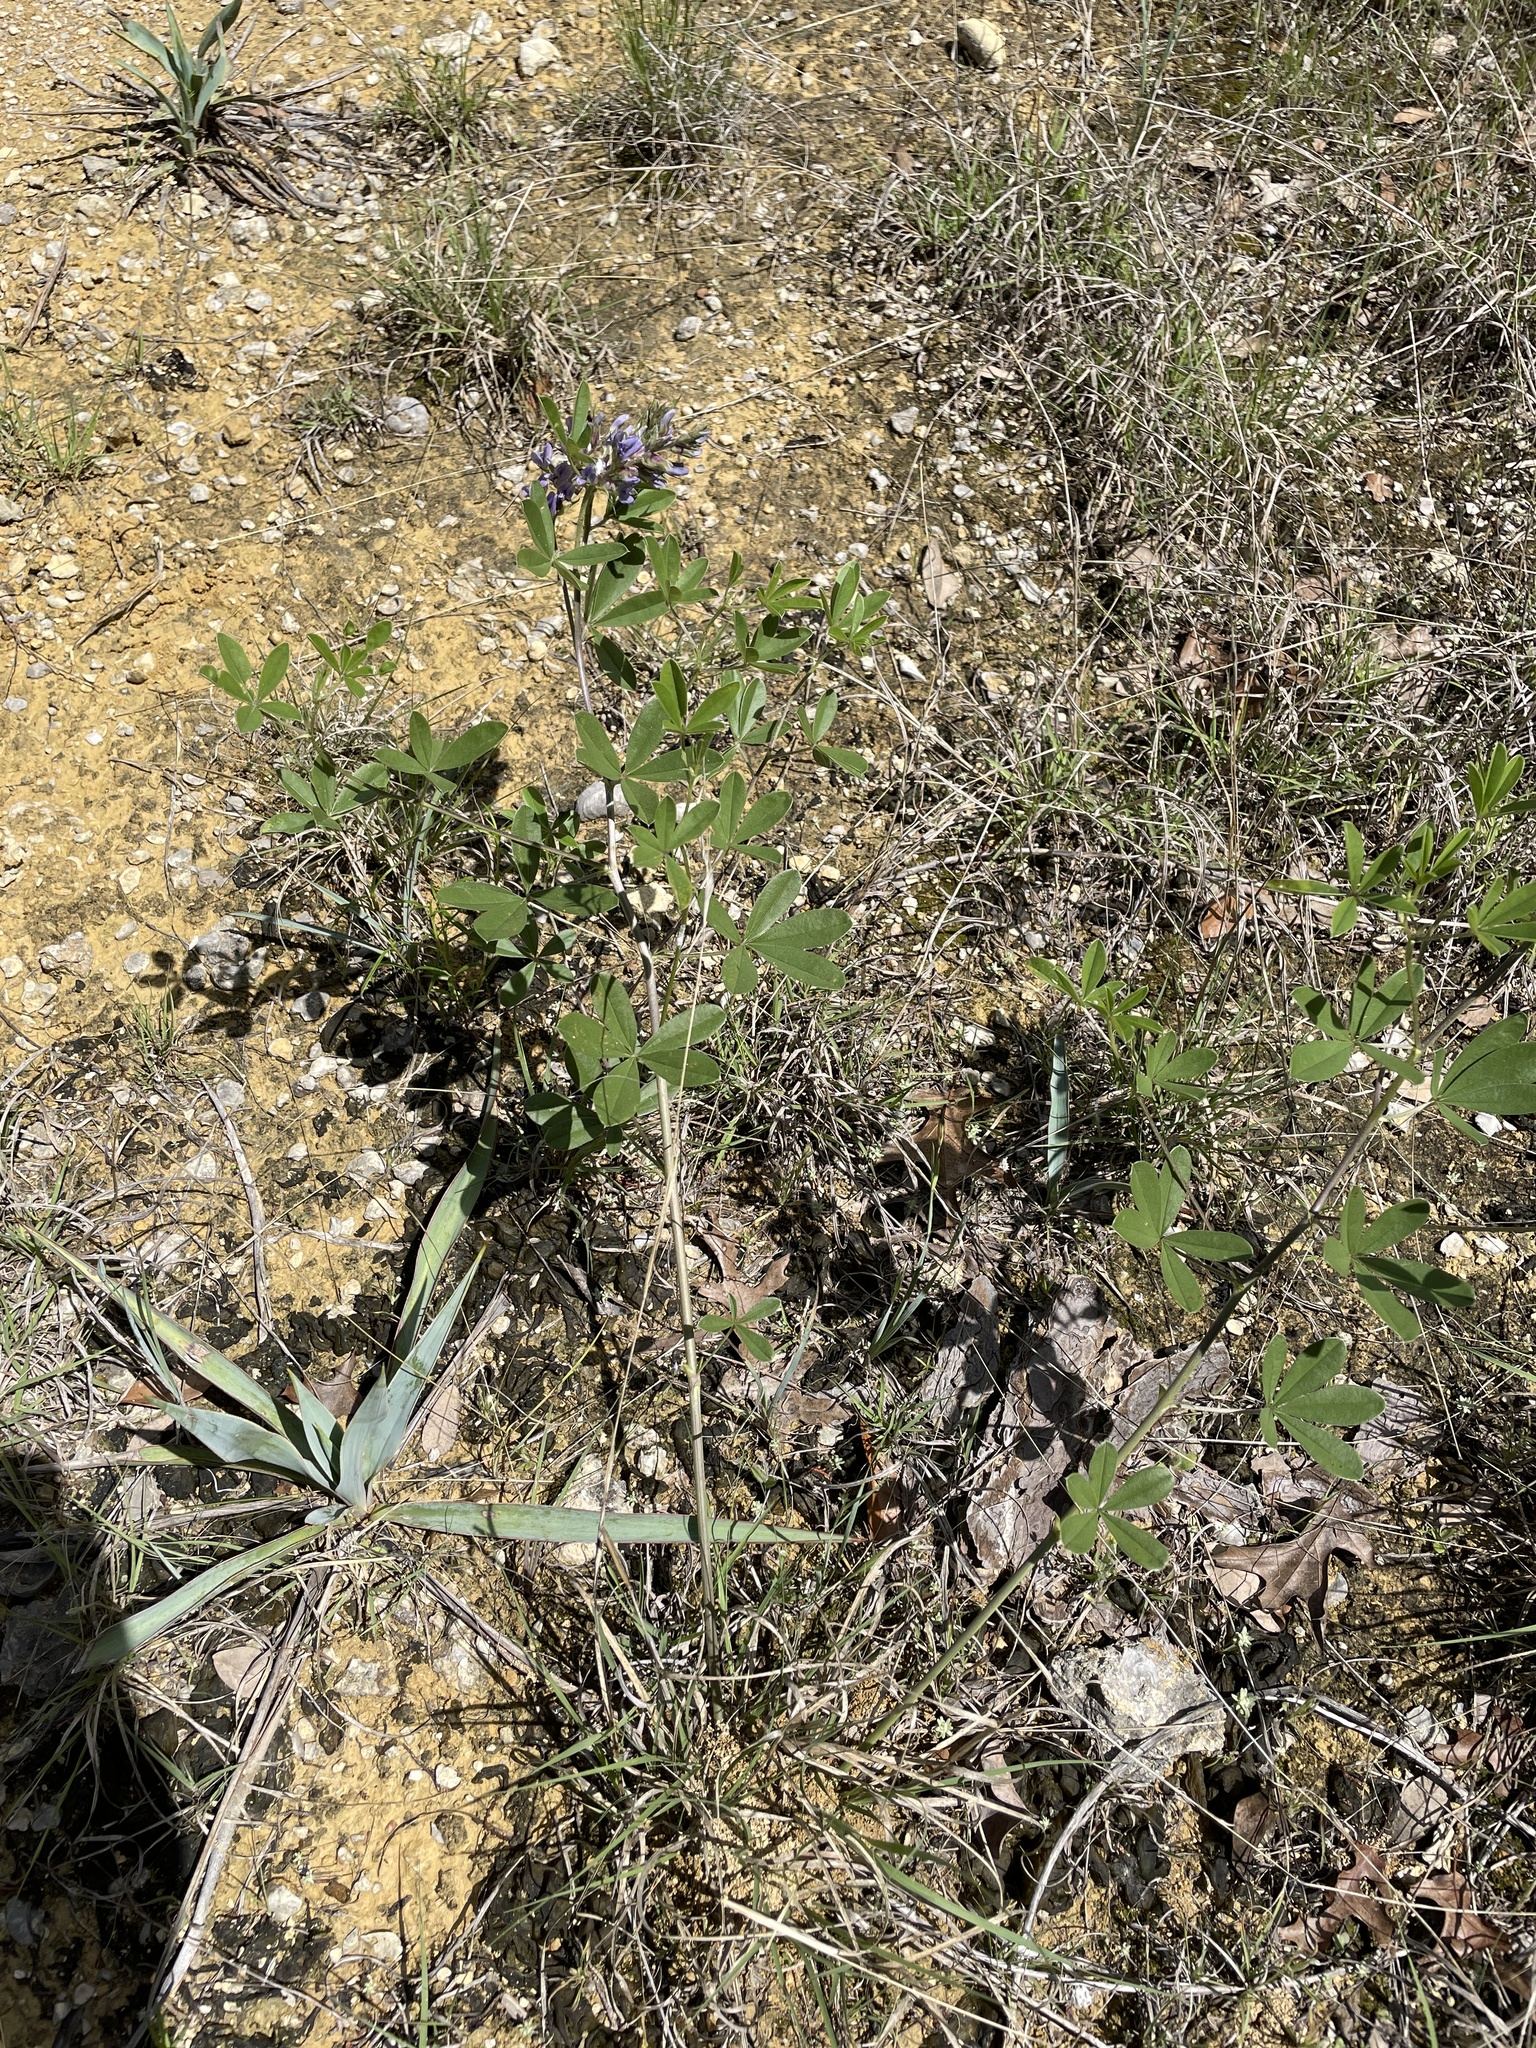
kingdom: Plantae
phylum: Tracheophyta
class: Magnoliopsida
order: Fabales
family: Fabaceae
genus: Pediomelum
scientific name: Pediomelum cuspidatum
